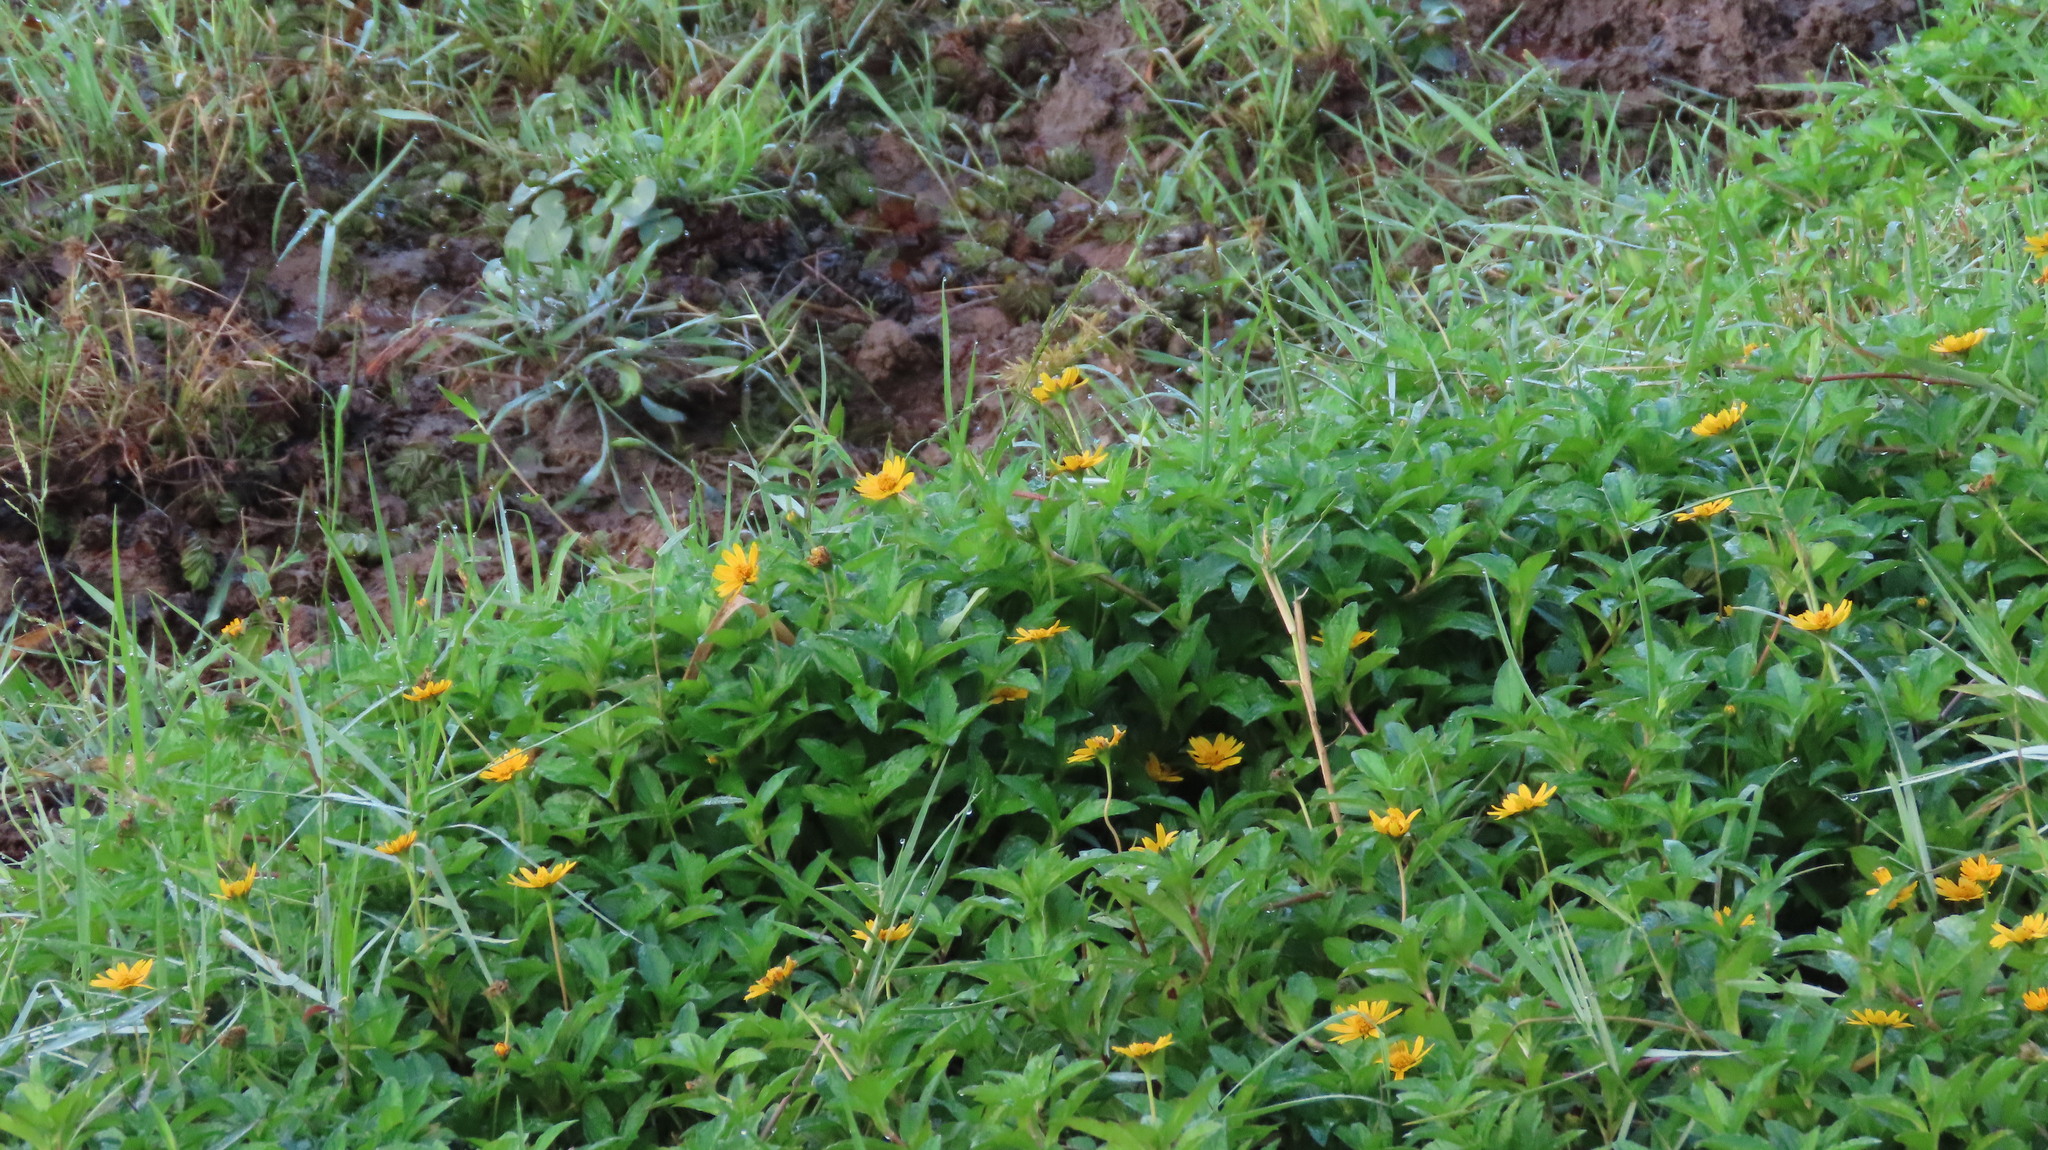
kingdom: Plantae
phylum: Tracheophyta
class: Magnoliopsida
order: Asterales
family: Asteraceae
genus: Sphagneticola
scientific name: Sphagneticola trilobata
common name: Bay biscayne creeping-oxeye
